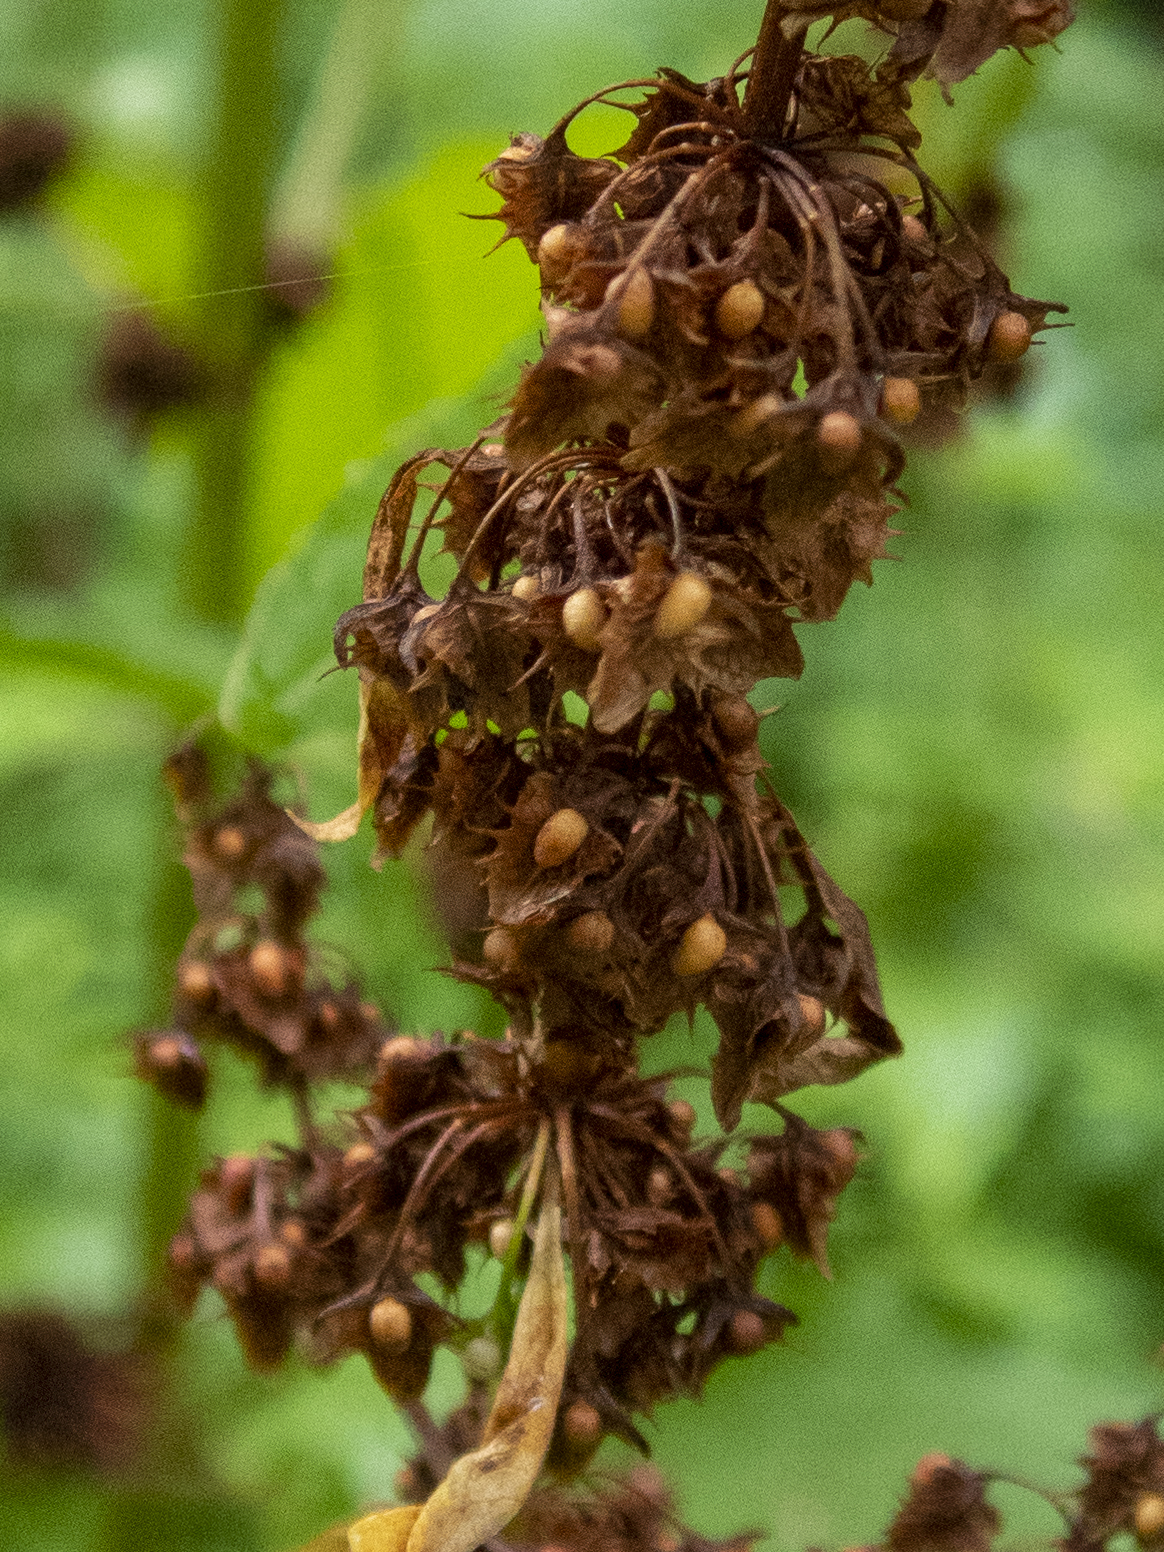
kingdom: Plantae
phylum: Tracheophyta
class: Magnoliopsida
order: Caryophyllales
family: Polygonaceae
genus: Rumex
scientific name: Rumex obtusifolius
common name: Bitter dock
